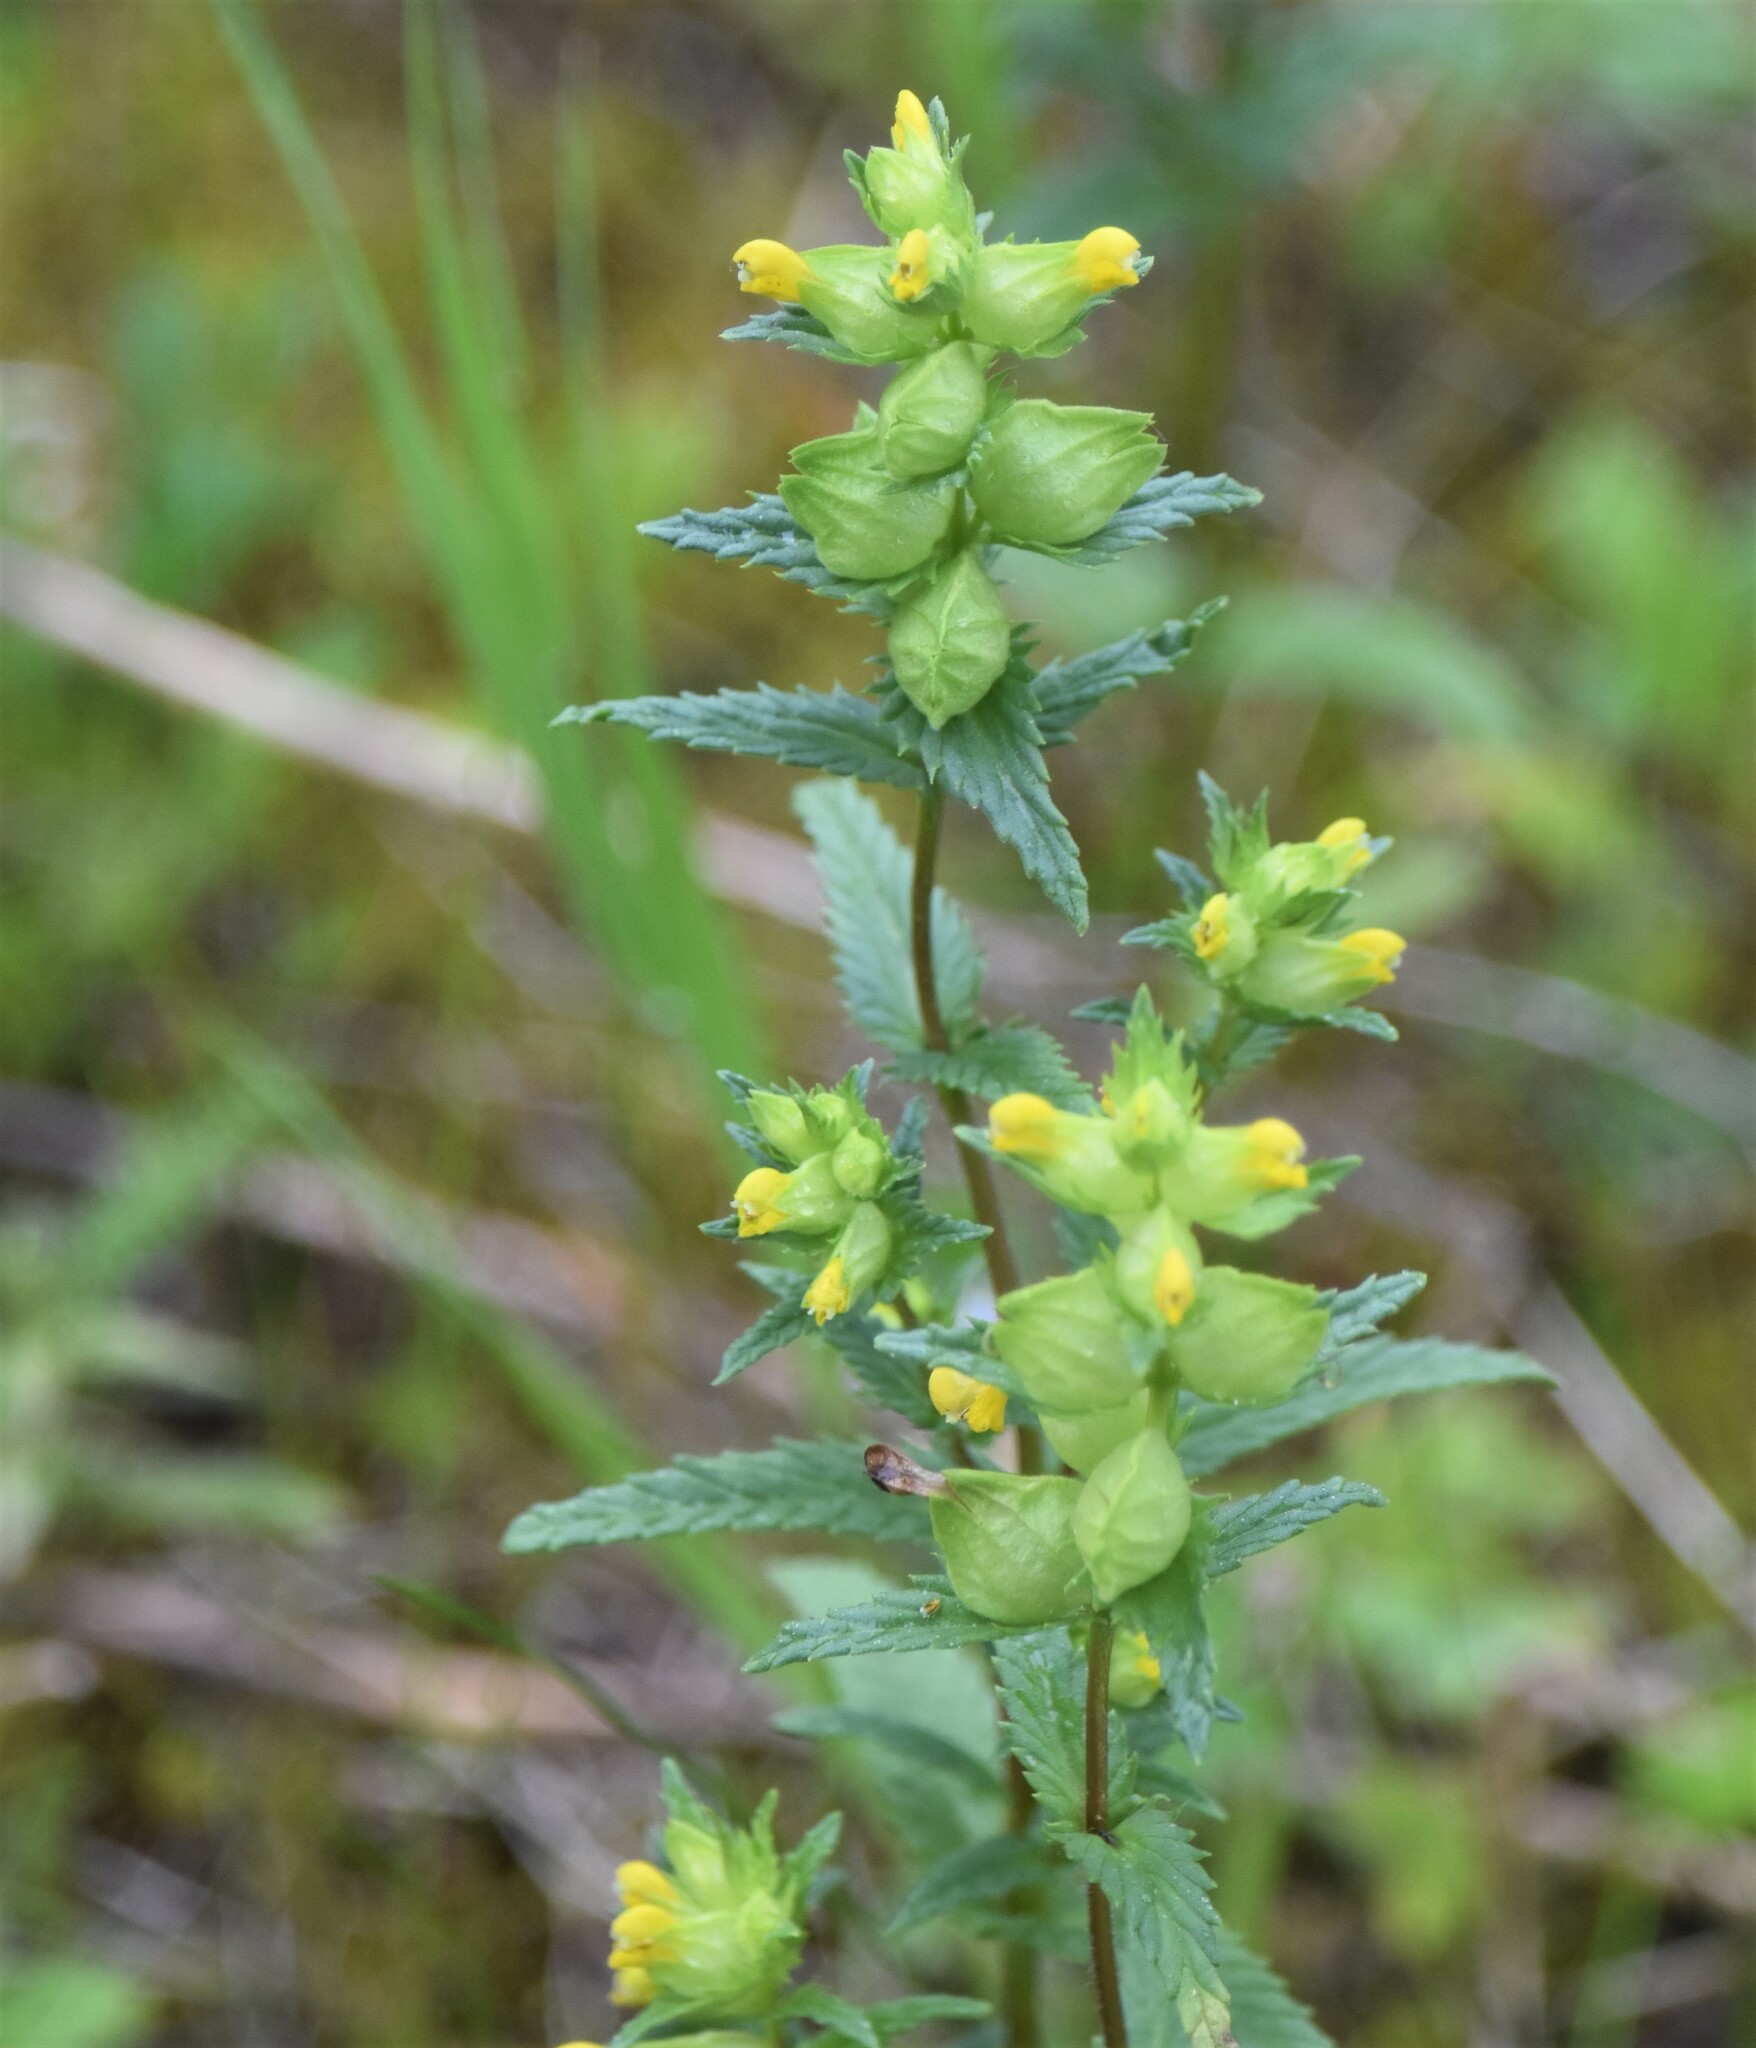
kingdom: Plantae
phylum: Tracheophyta
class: Magnoliopsida
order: Lamiales
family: Orobanchaceae
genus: Rhinanthus
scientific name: Rhinanthus groenlandicus
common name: Little yellow rattle
